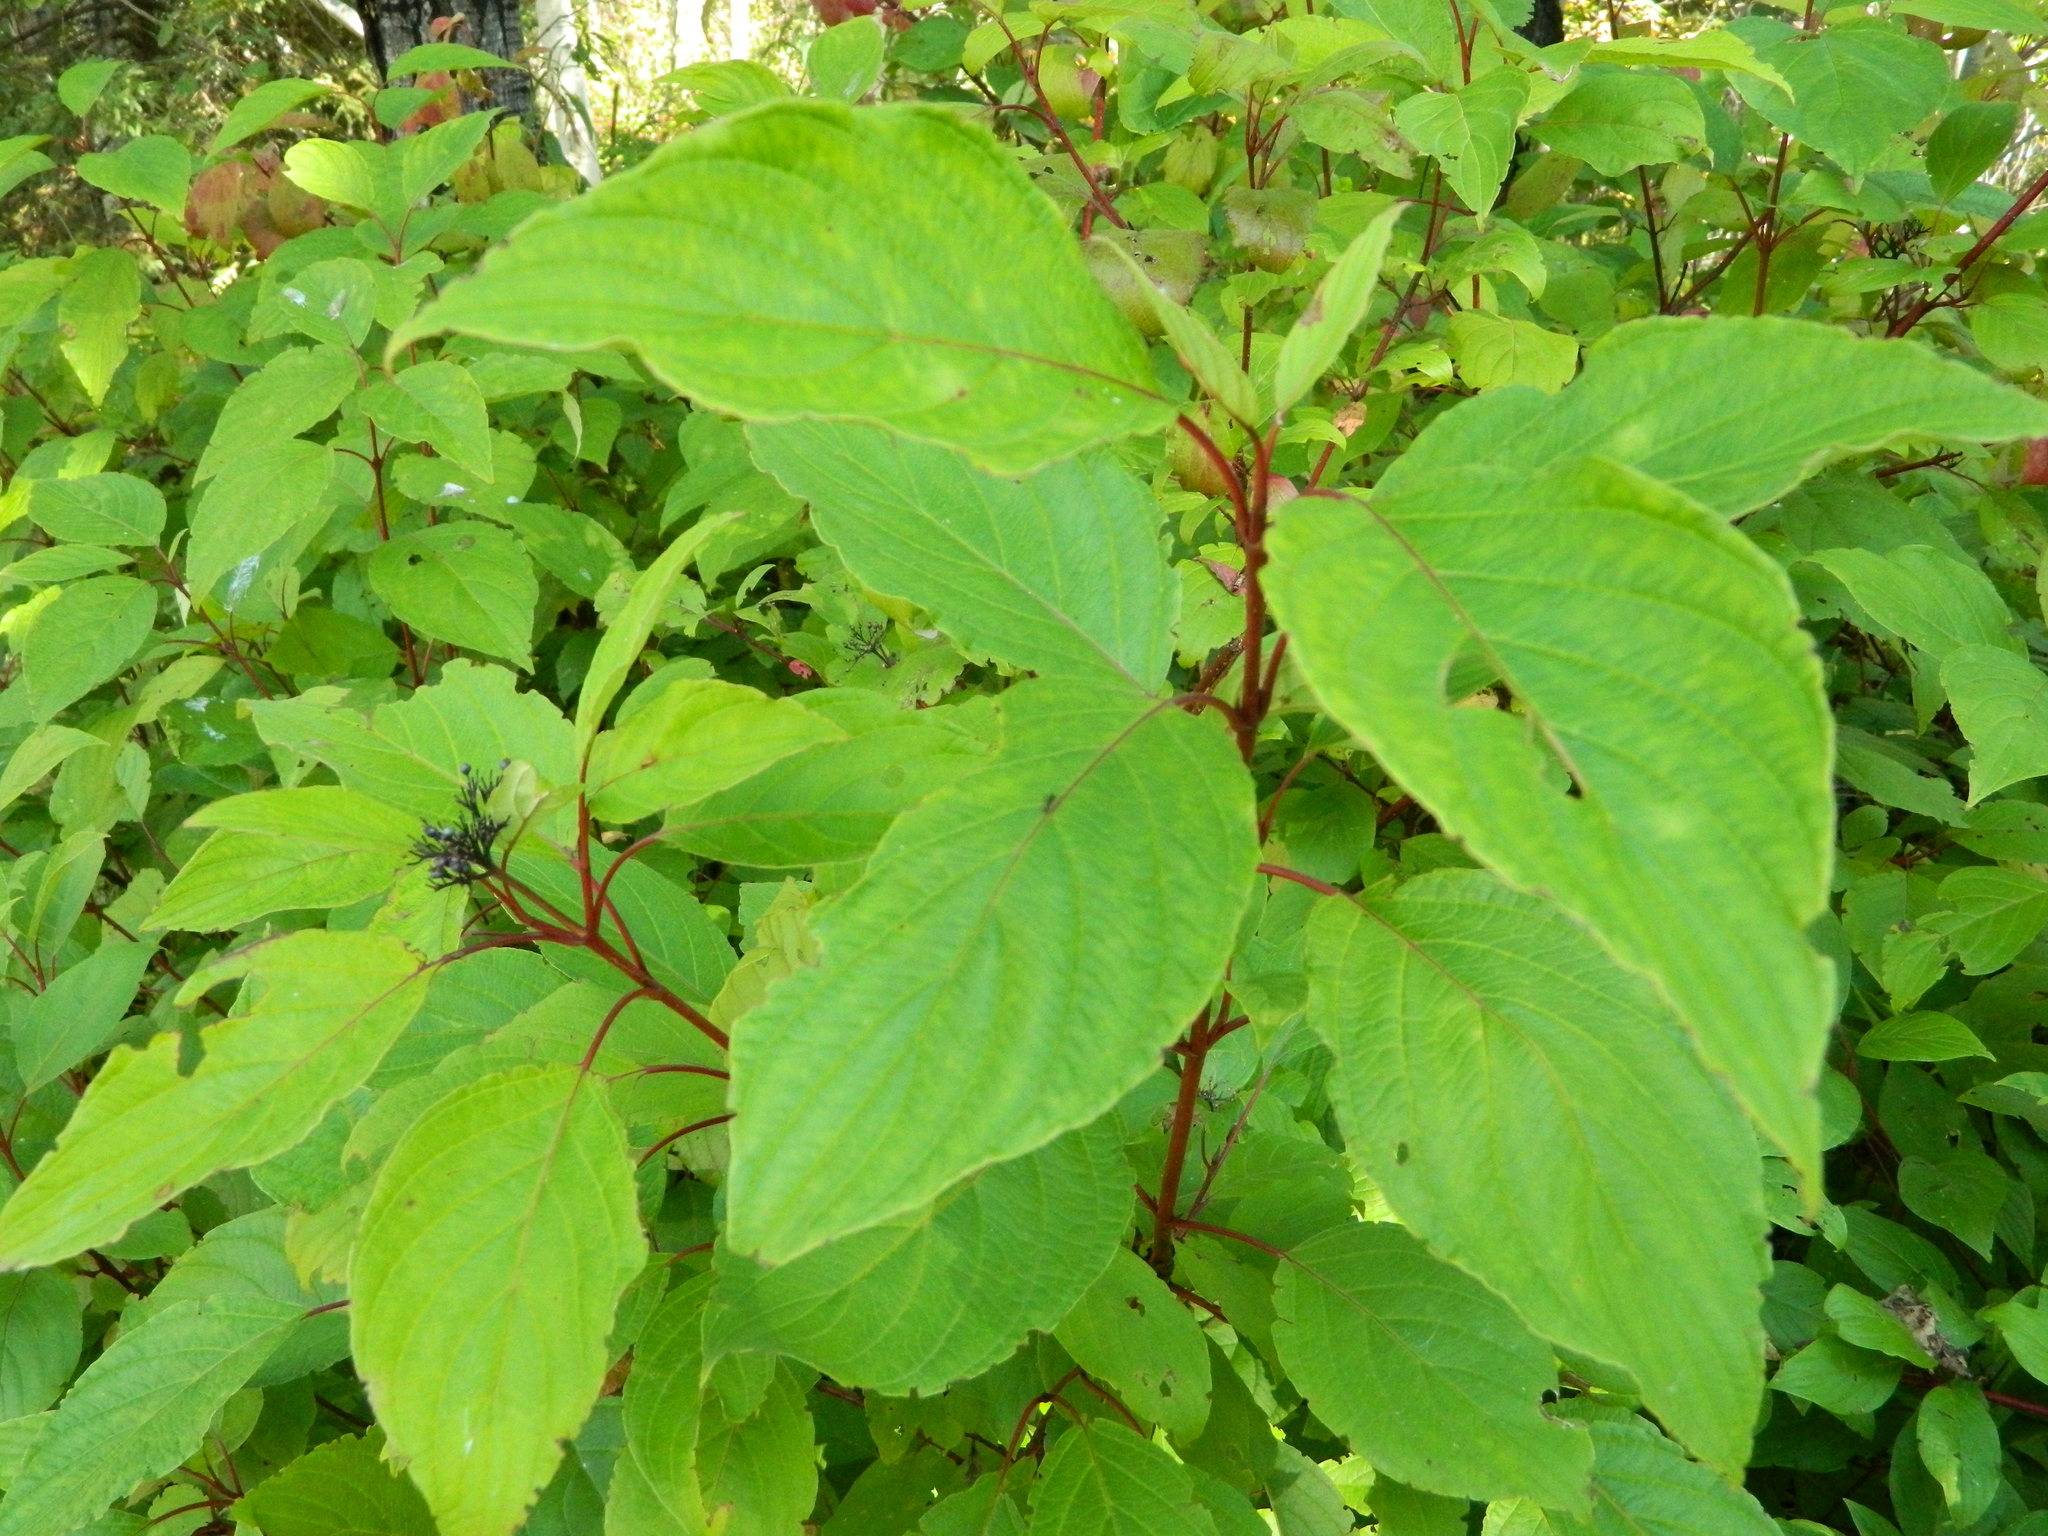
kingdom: Plantae
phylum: Tracheophyta
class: Magnoliopsida
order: Cornales
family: Cornaceae
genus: Cornus
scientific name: Cornus sericea
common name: Red-osier dogwood
